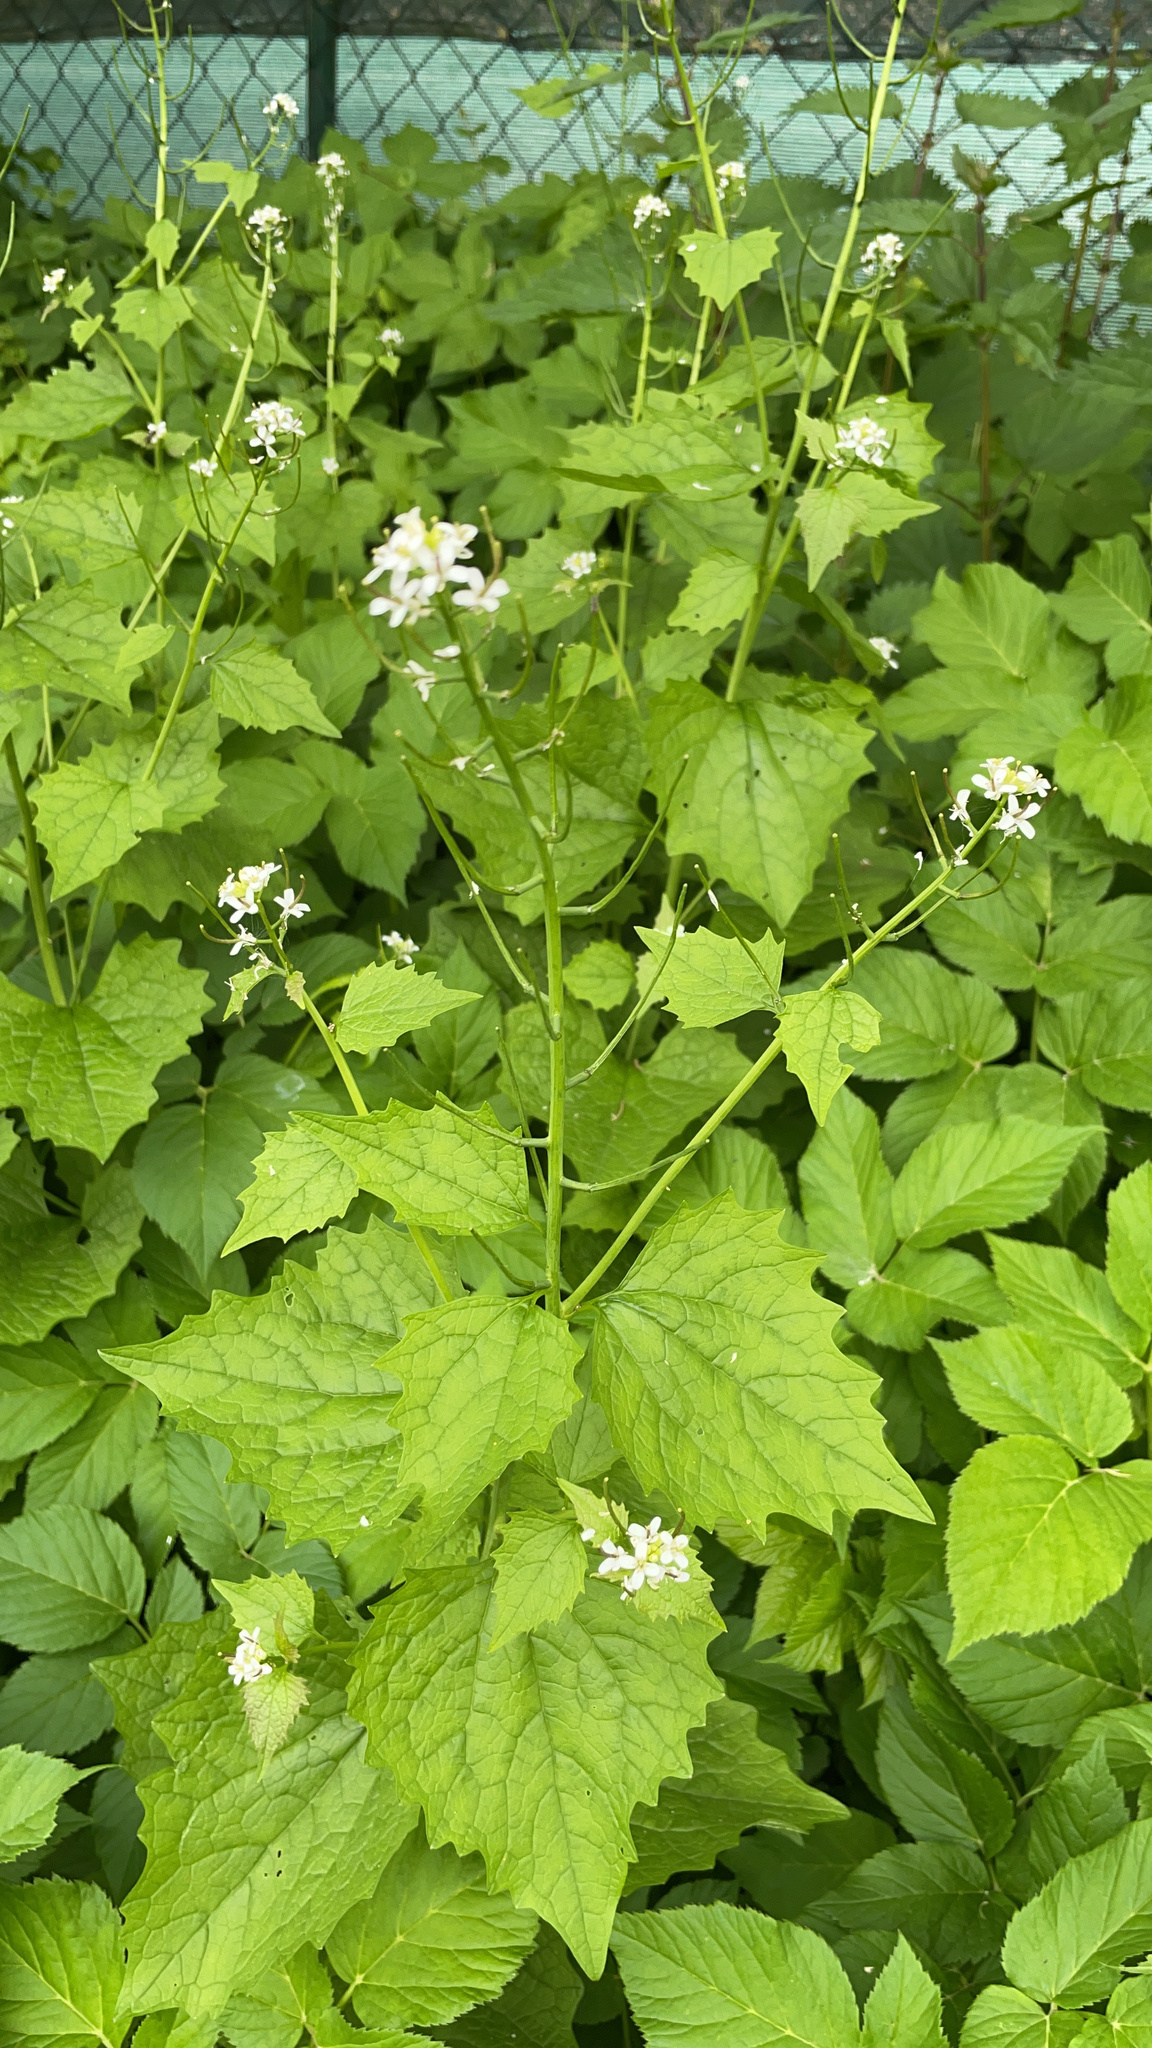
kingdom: Plantae
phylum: Tracheophyta
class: Magnoliopsida
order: Brassicales
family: Brassicaceae
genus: Alliaria
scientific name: Alliaria petiolata
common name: Garlic mustard
